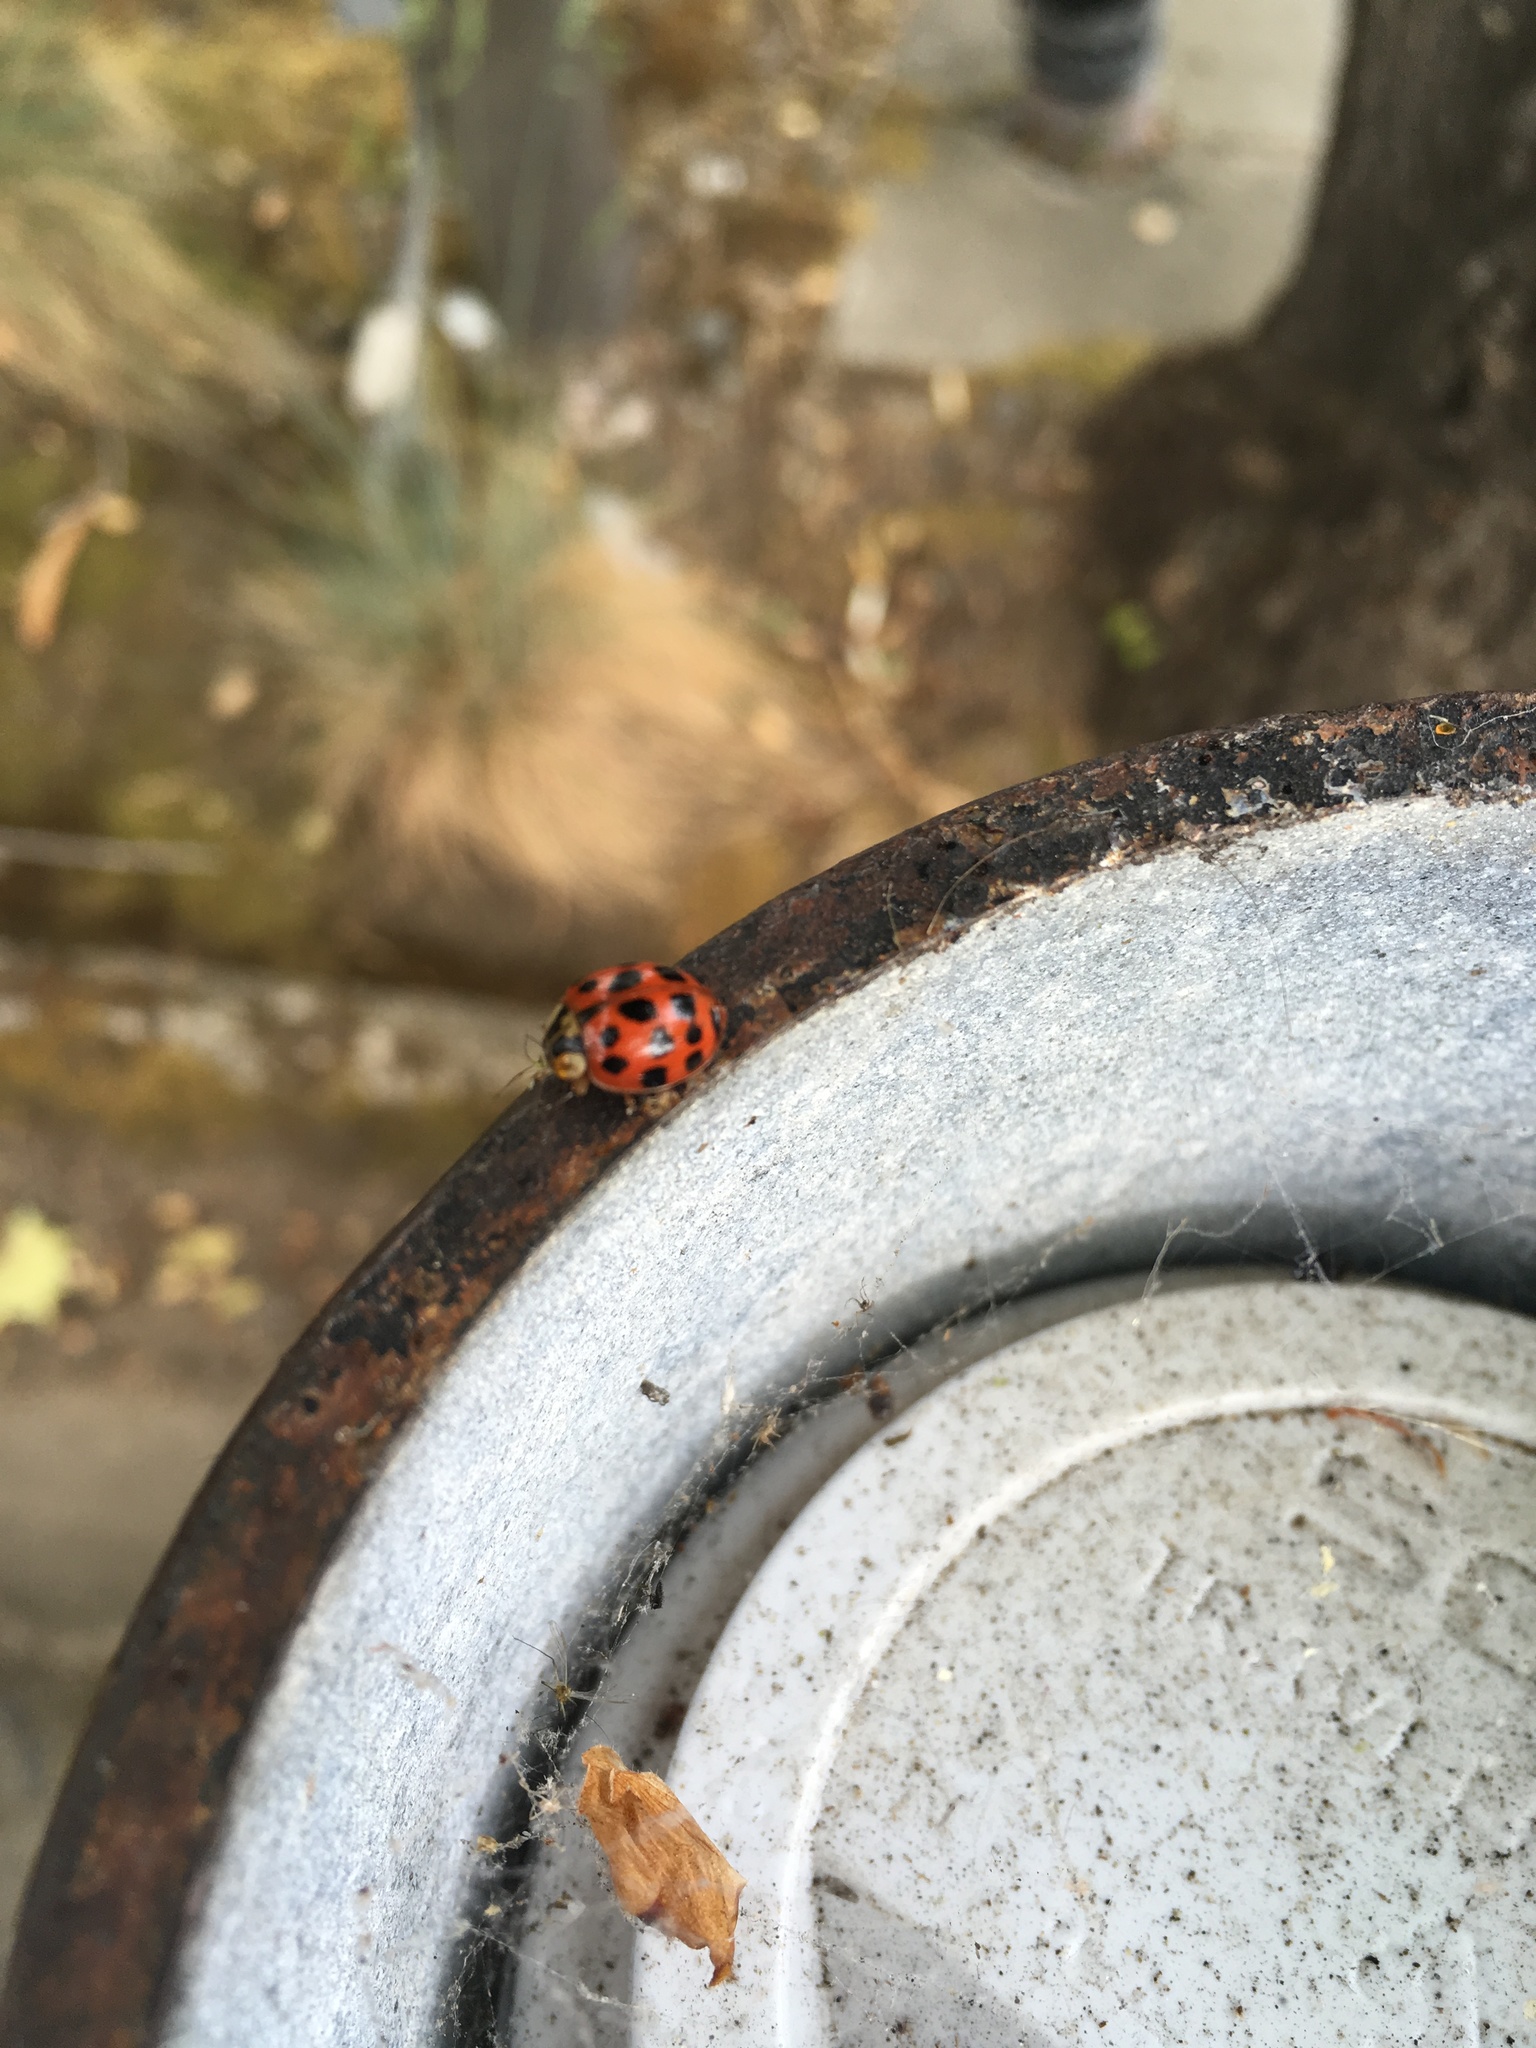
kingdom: Animalia
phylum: Arthropoda
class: Insecta
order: Coleoptera
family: Coccinellidae
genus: Harmonia
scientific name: Harmonia axyridis
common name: Harlequin ladybird
